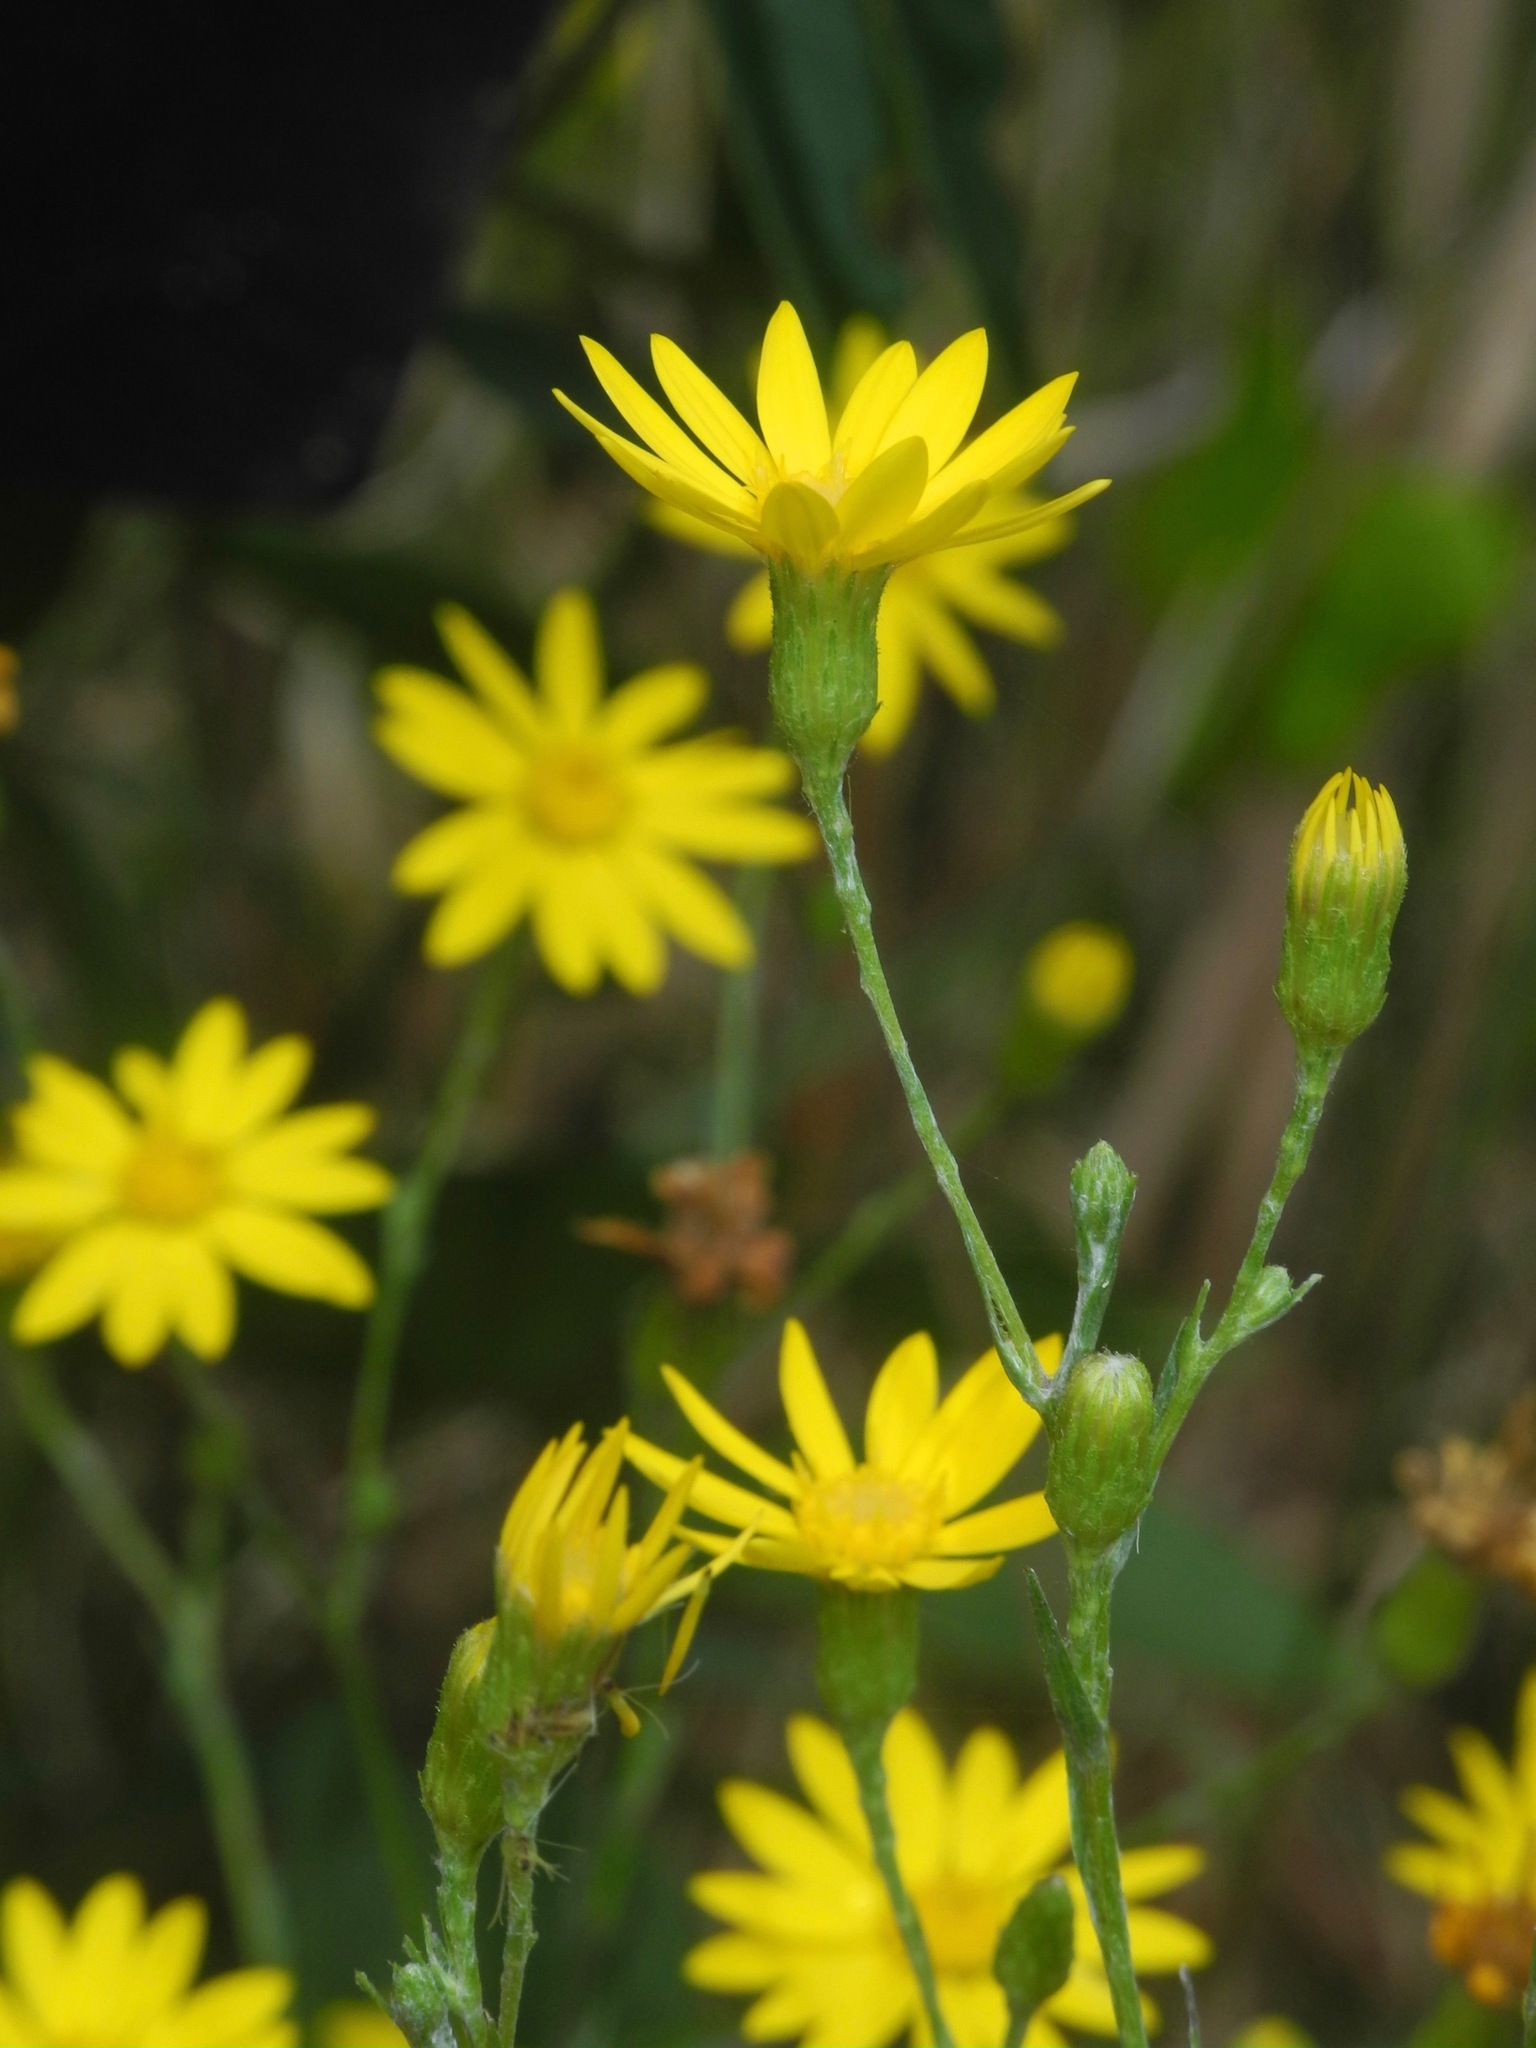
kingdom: Plantae
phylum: Tracheophyta
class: Magnoliopsida
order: Asterales
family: Asteraceae
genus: Pityopsis
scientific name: Pityopsis graminifolia
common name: Grass-leaf golden-aster
